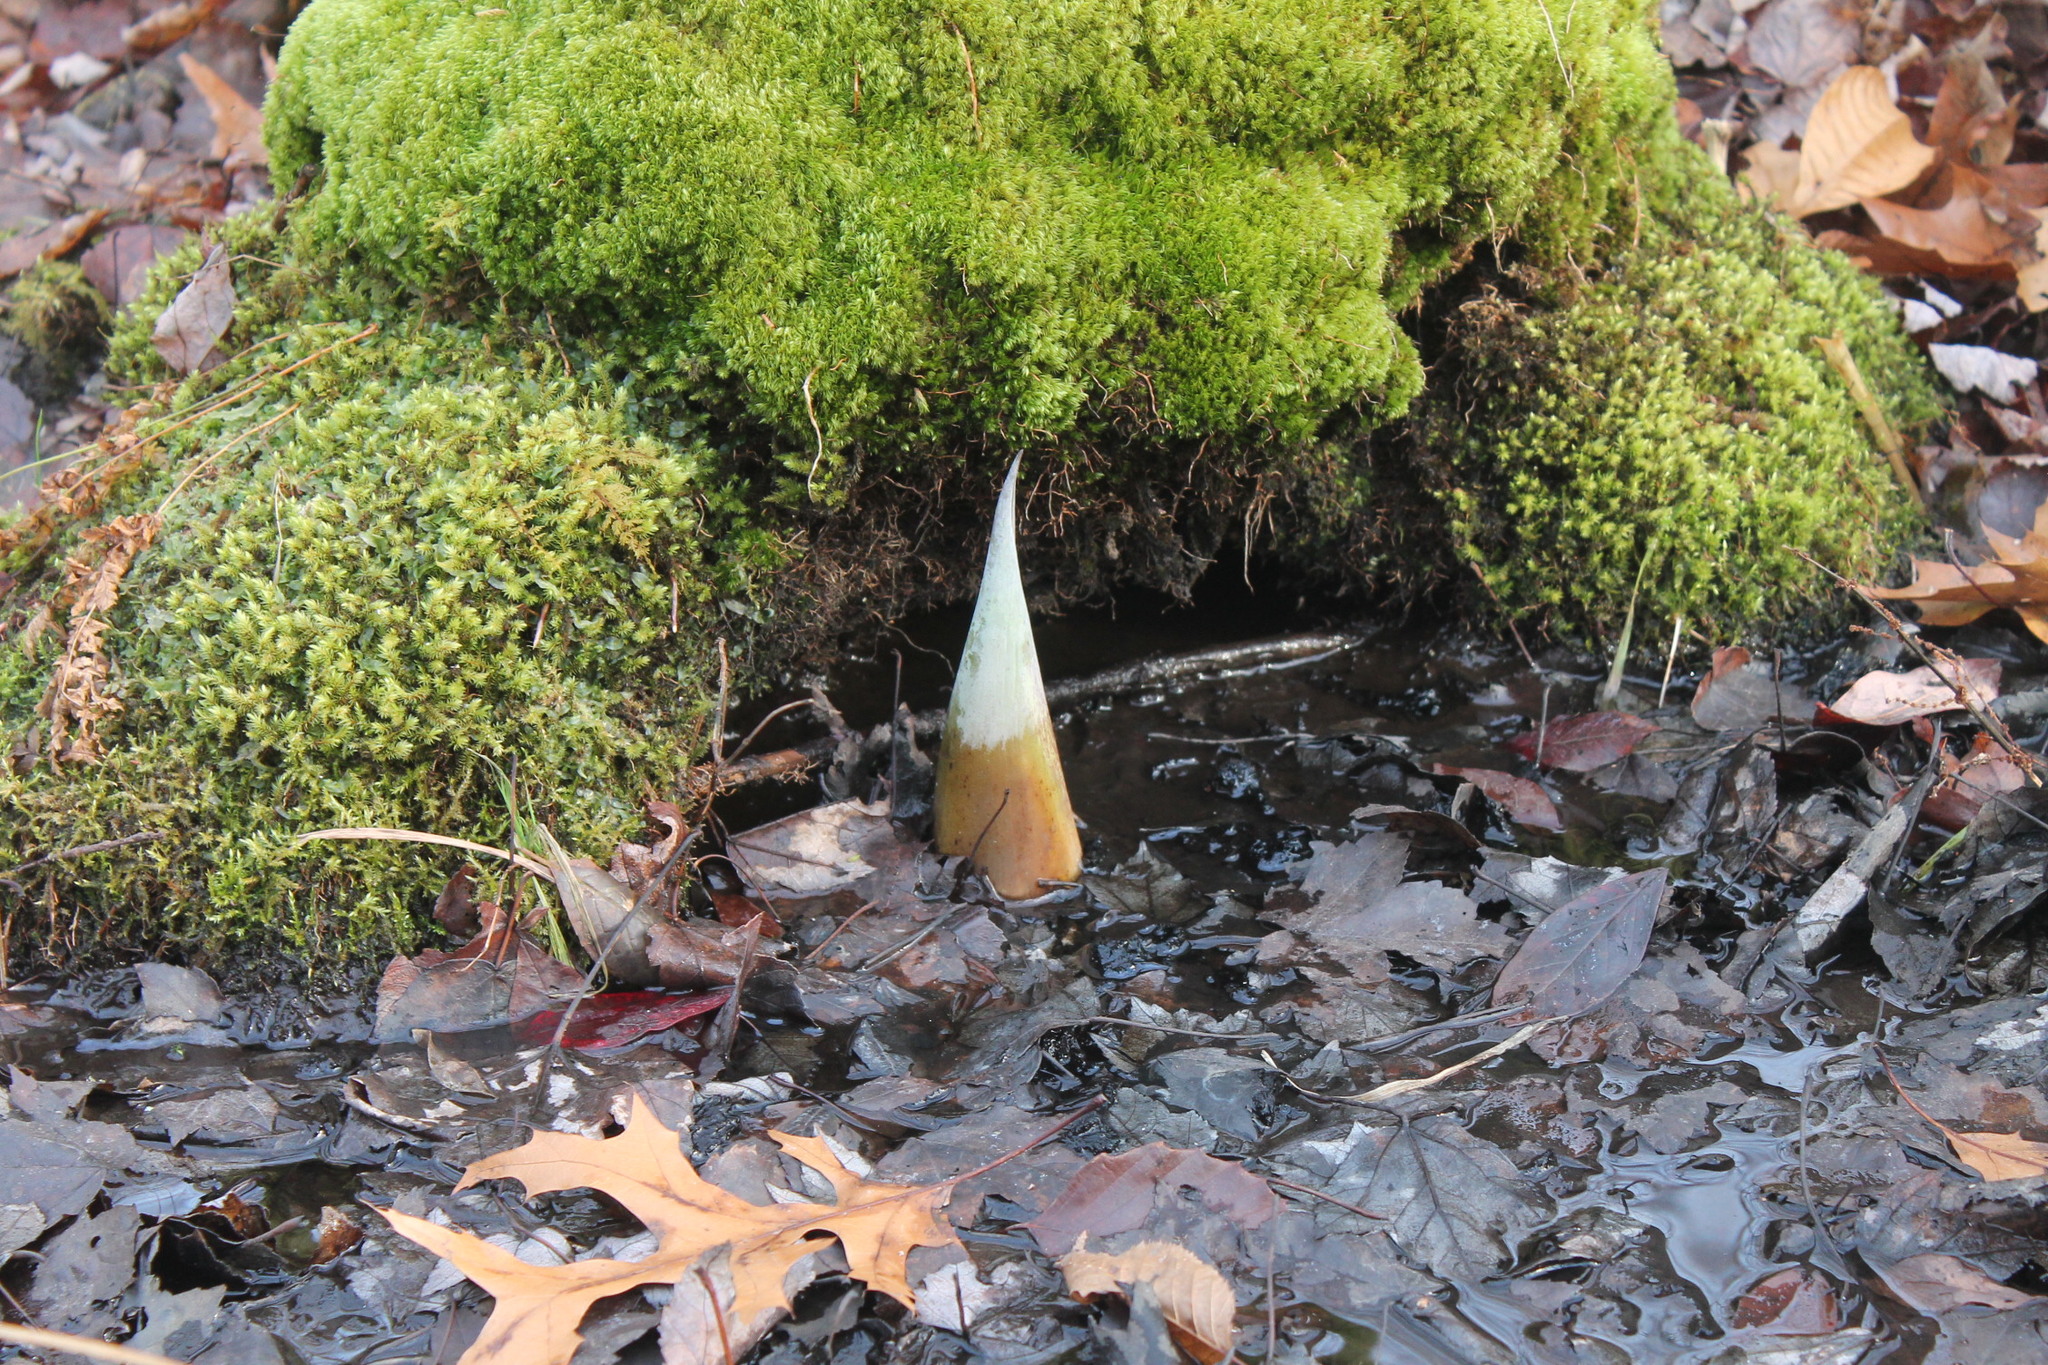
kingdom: Plantae
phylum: Tracheophyta
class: Liliopsida
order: Alismatales
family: Araceae
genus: Symplocarpus
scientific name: Symplocarpus foetidus
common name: Eastern skunk cabbage
